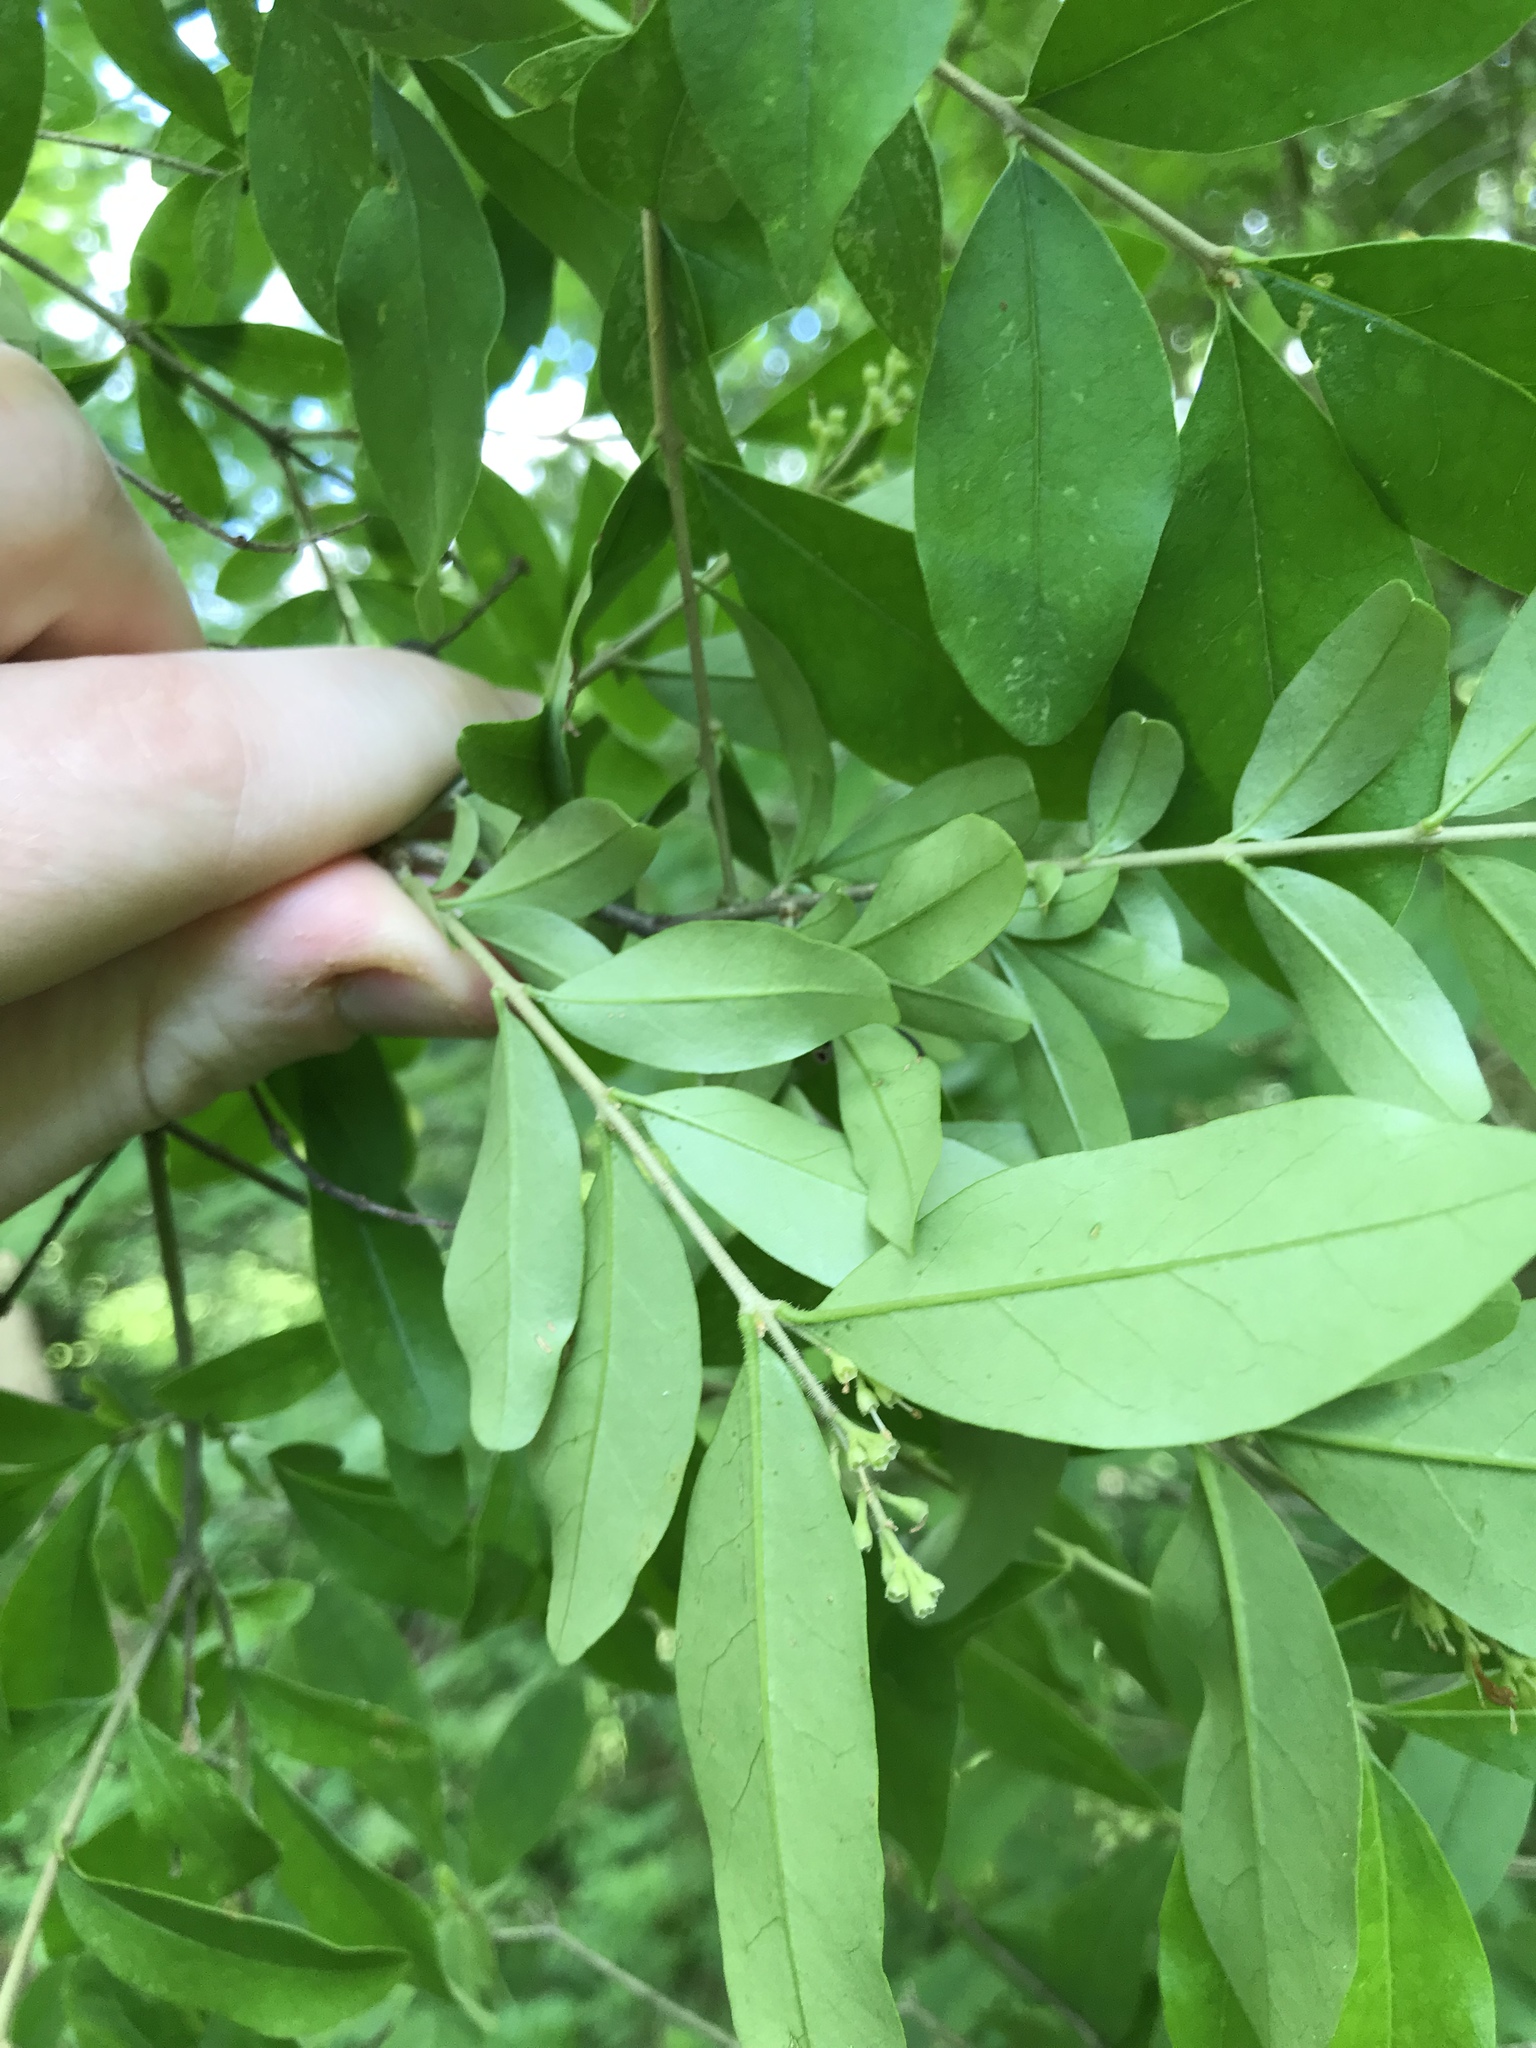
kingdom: Plantae
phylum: Tracheophyta
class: Magnoliopsida
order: Lamiales
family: Oleaceae
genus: Ligustrum
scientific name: Ligustrum obtusifolium
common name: Border privet
